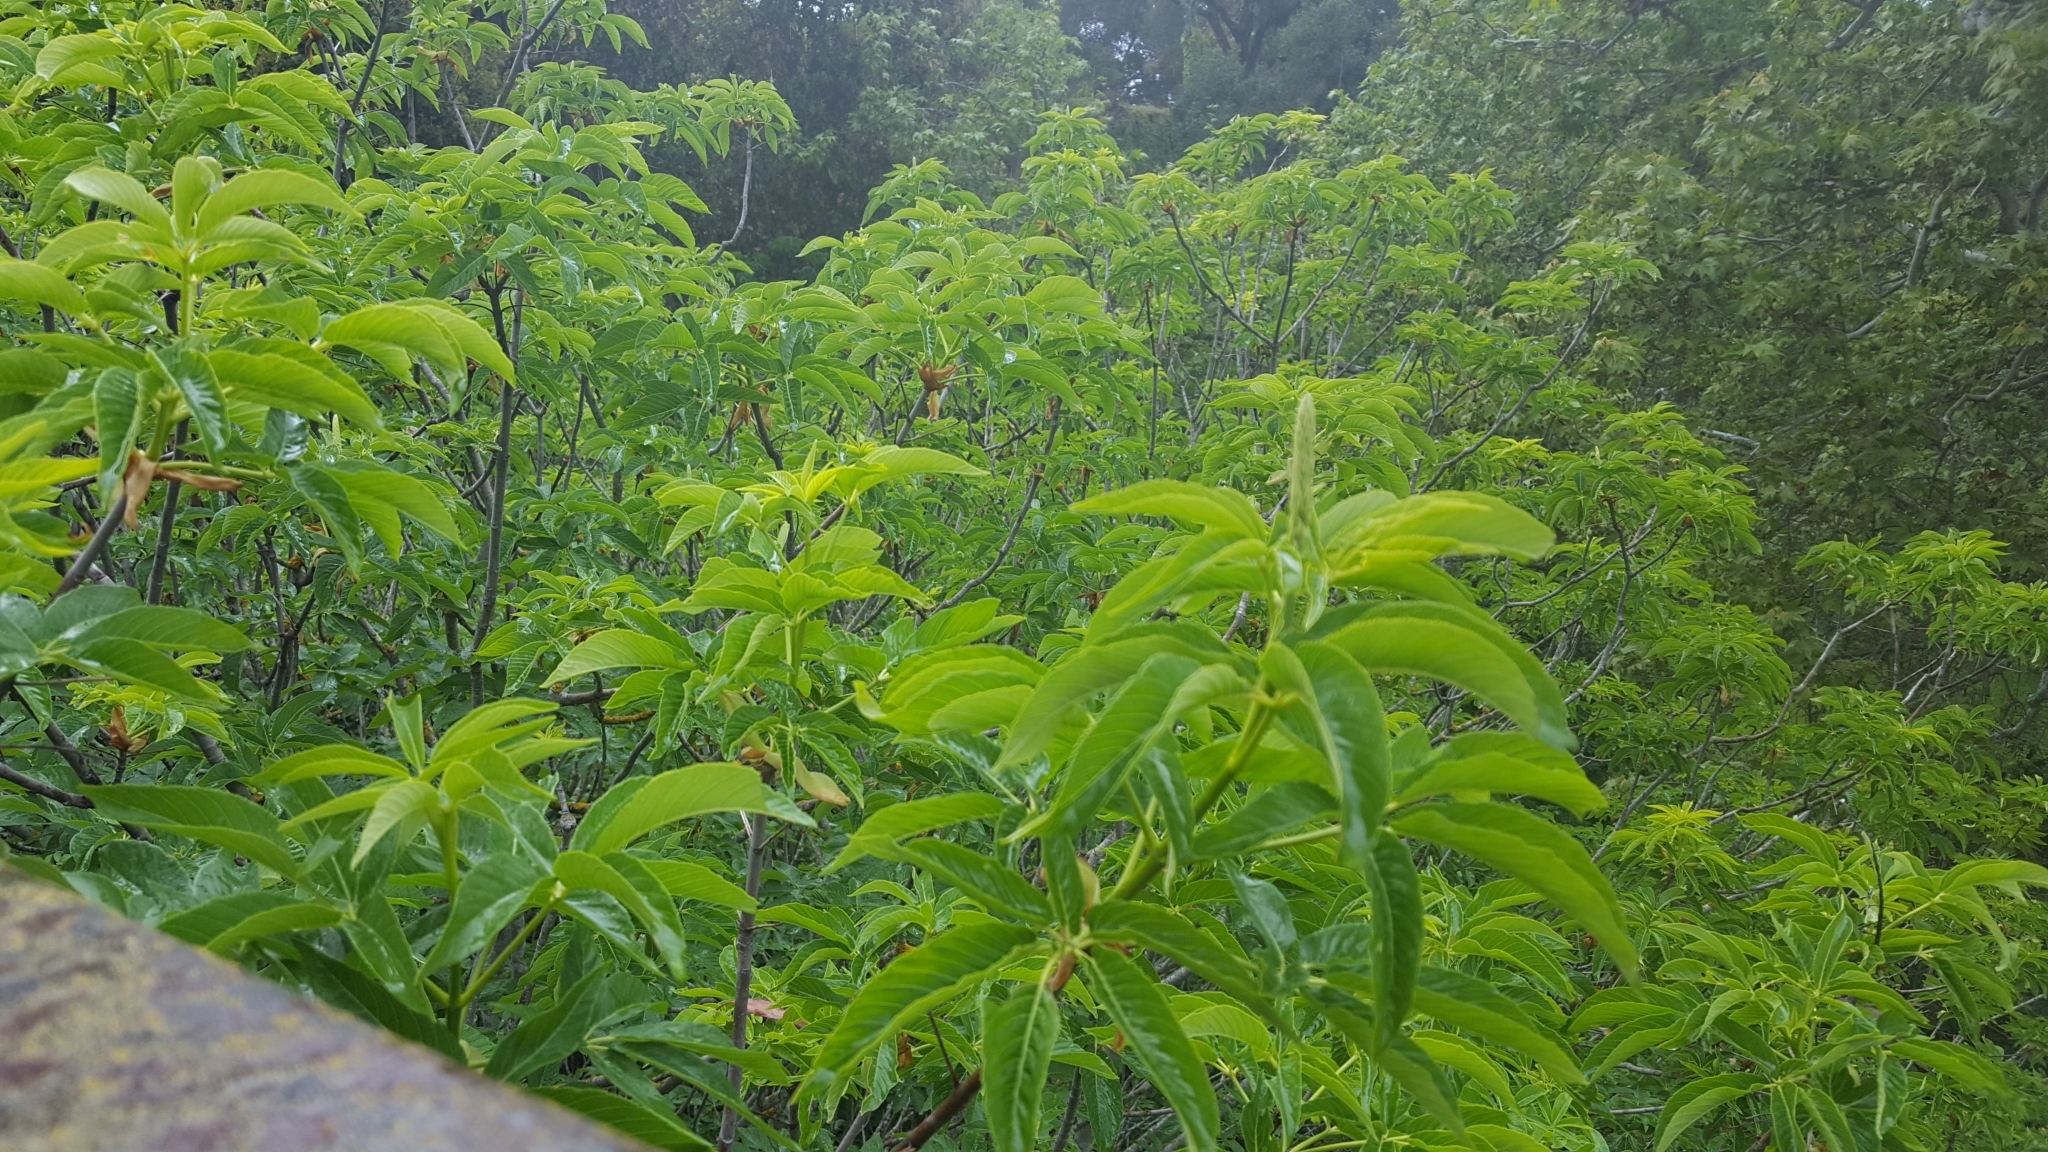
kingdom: Plantae
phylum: Tracheophyta
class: Magnoliopsida
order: Sapindales
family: Sapindaceae
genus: Aesculus
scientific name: Aesculus californica
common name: California buckeye
